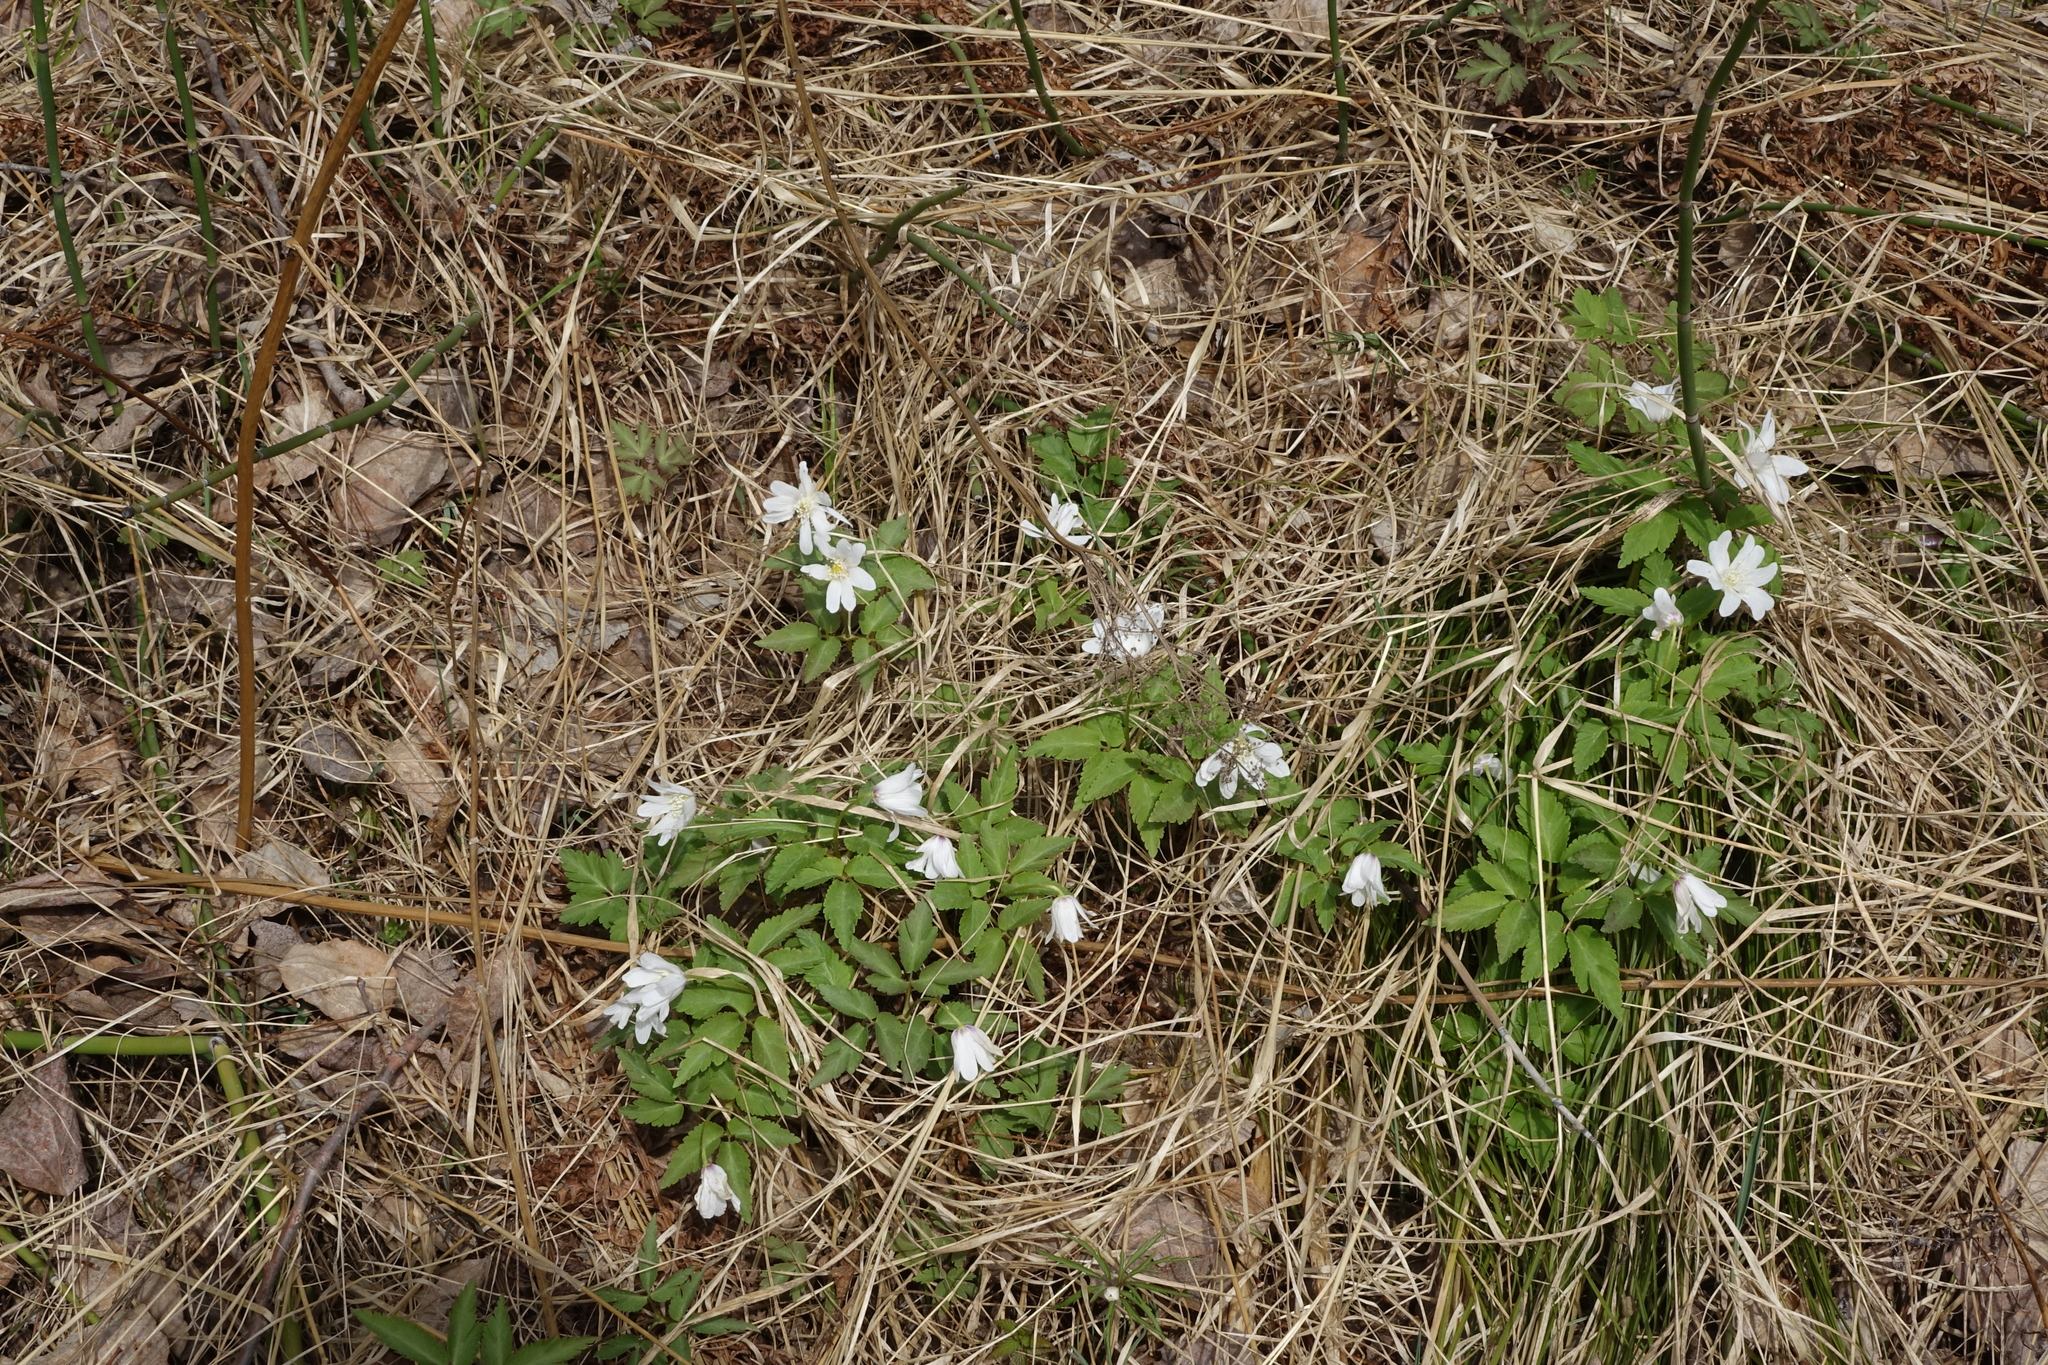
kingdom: Plantae
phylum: Tracheophyta
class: Magnoliopsida
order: Ranunculales
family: Ranunculaceae
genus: Anemone
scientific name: Anemone altaica
